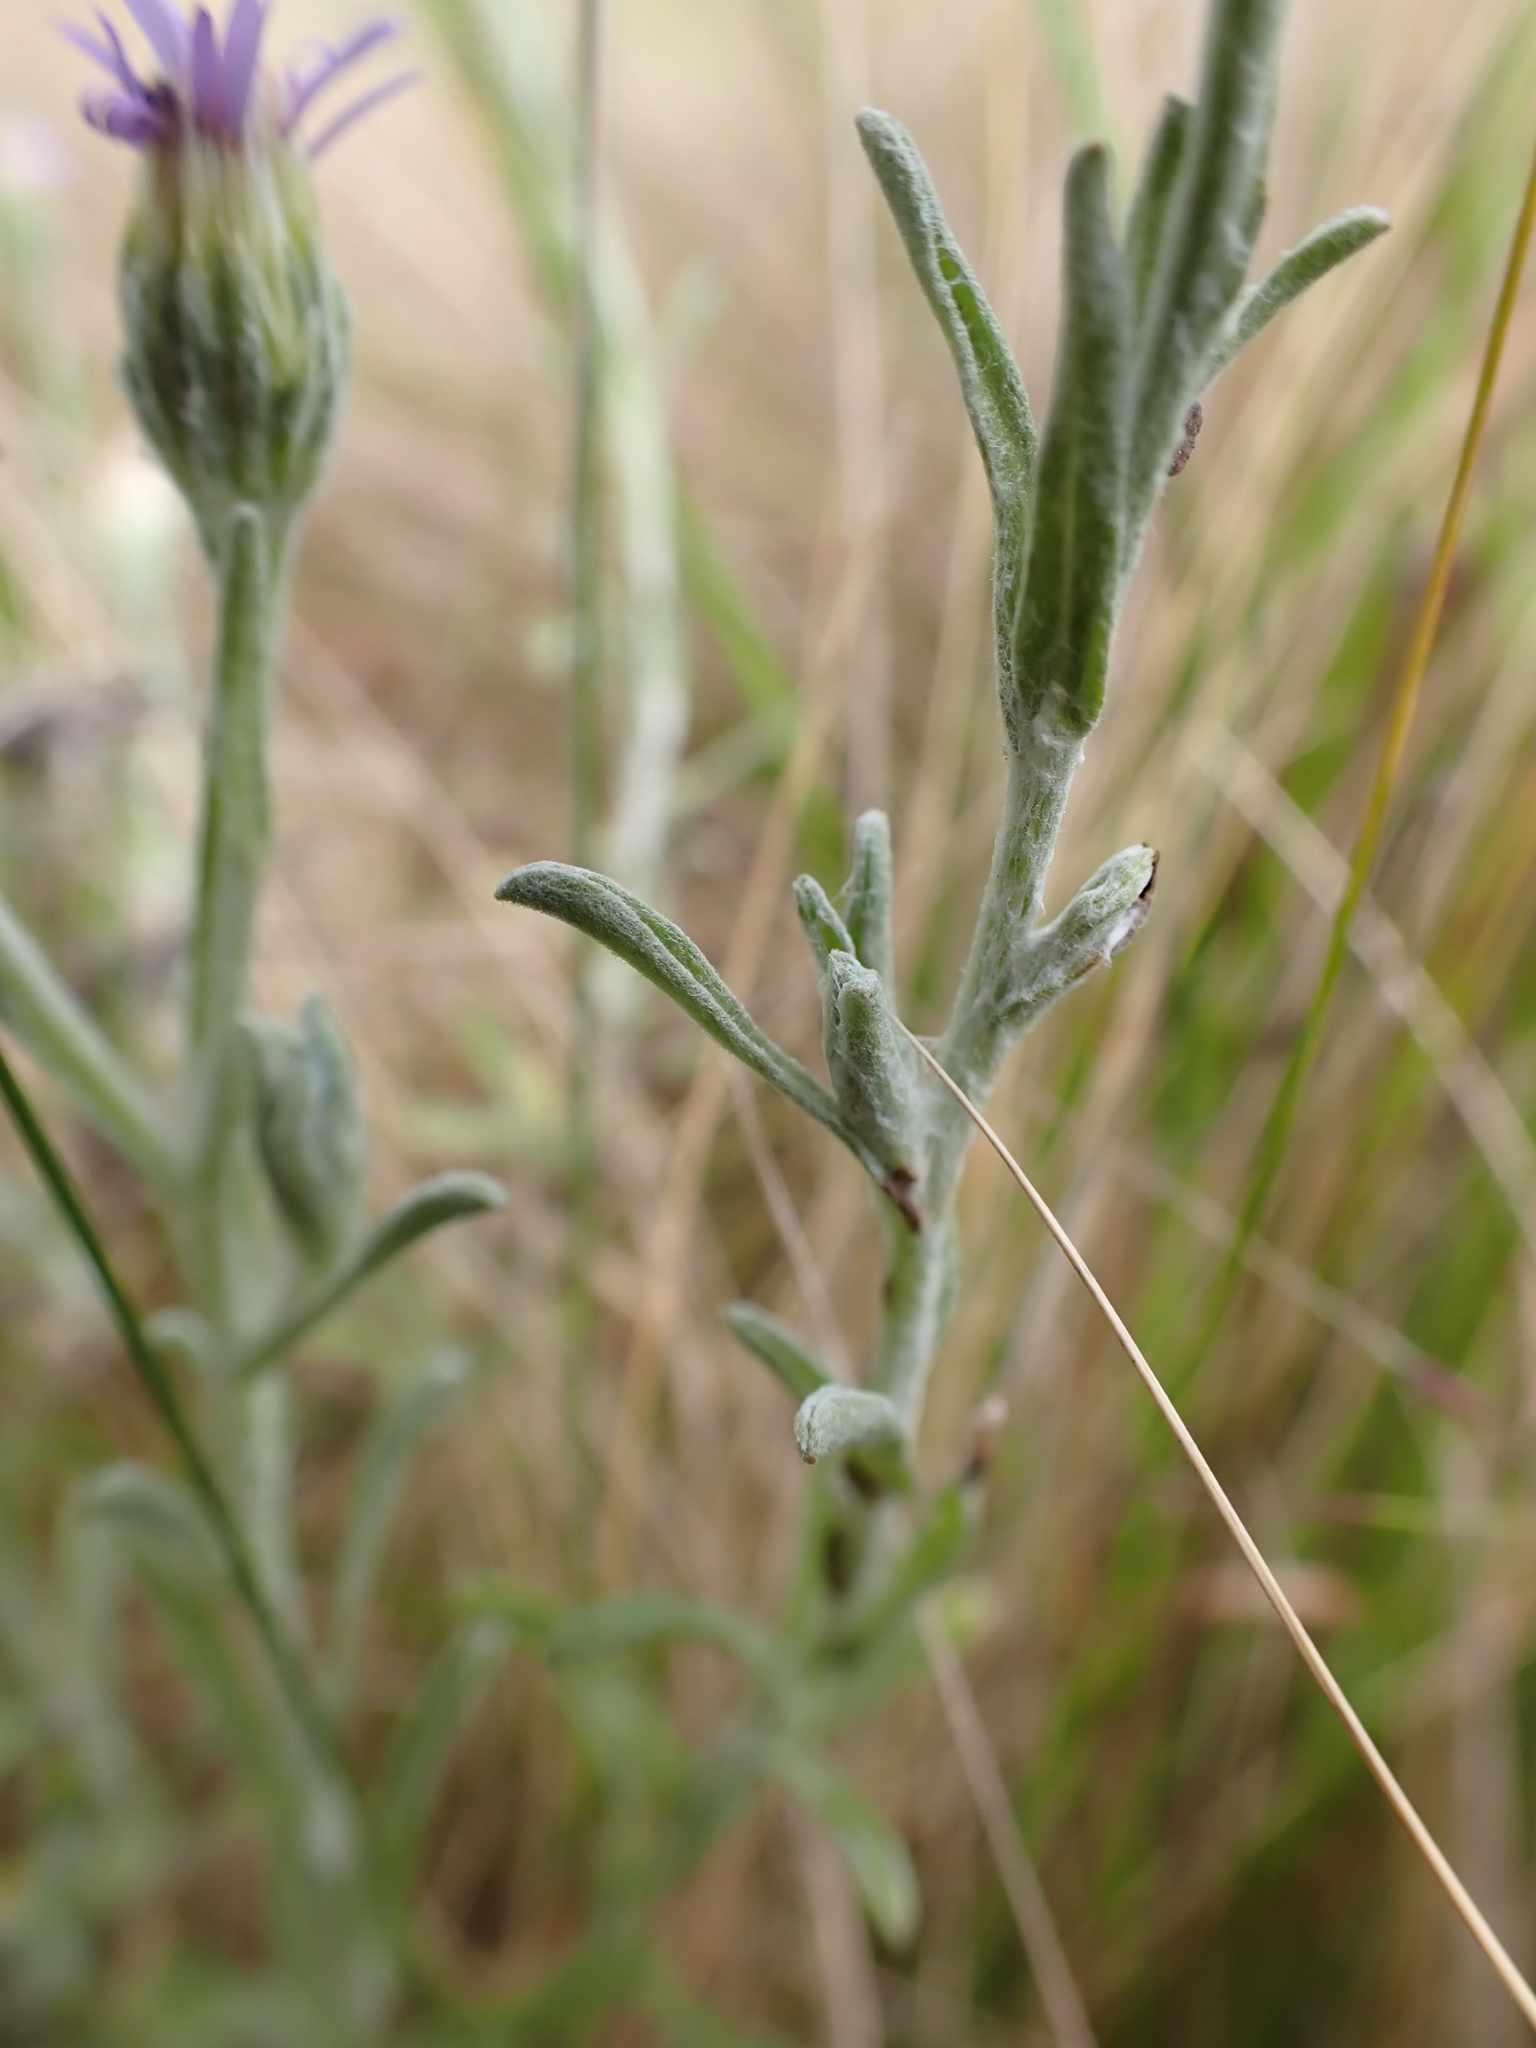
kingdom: Plantae
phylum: Tracheophyta
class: Magnoliopsida
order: Asterales
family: Asteraceae
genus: Vittadinia
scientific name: Vittadinia gracilis
